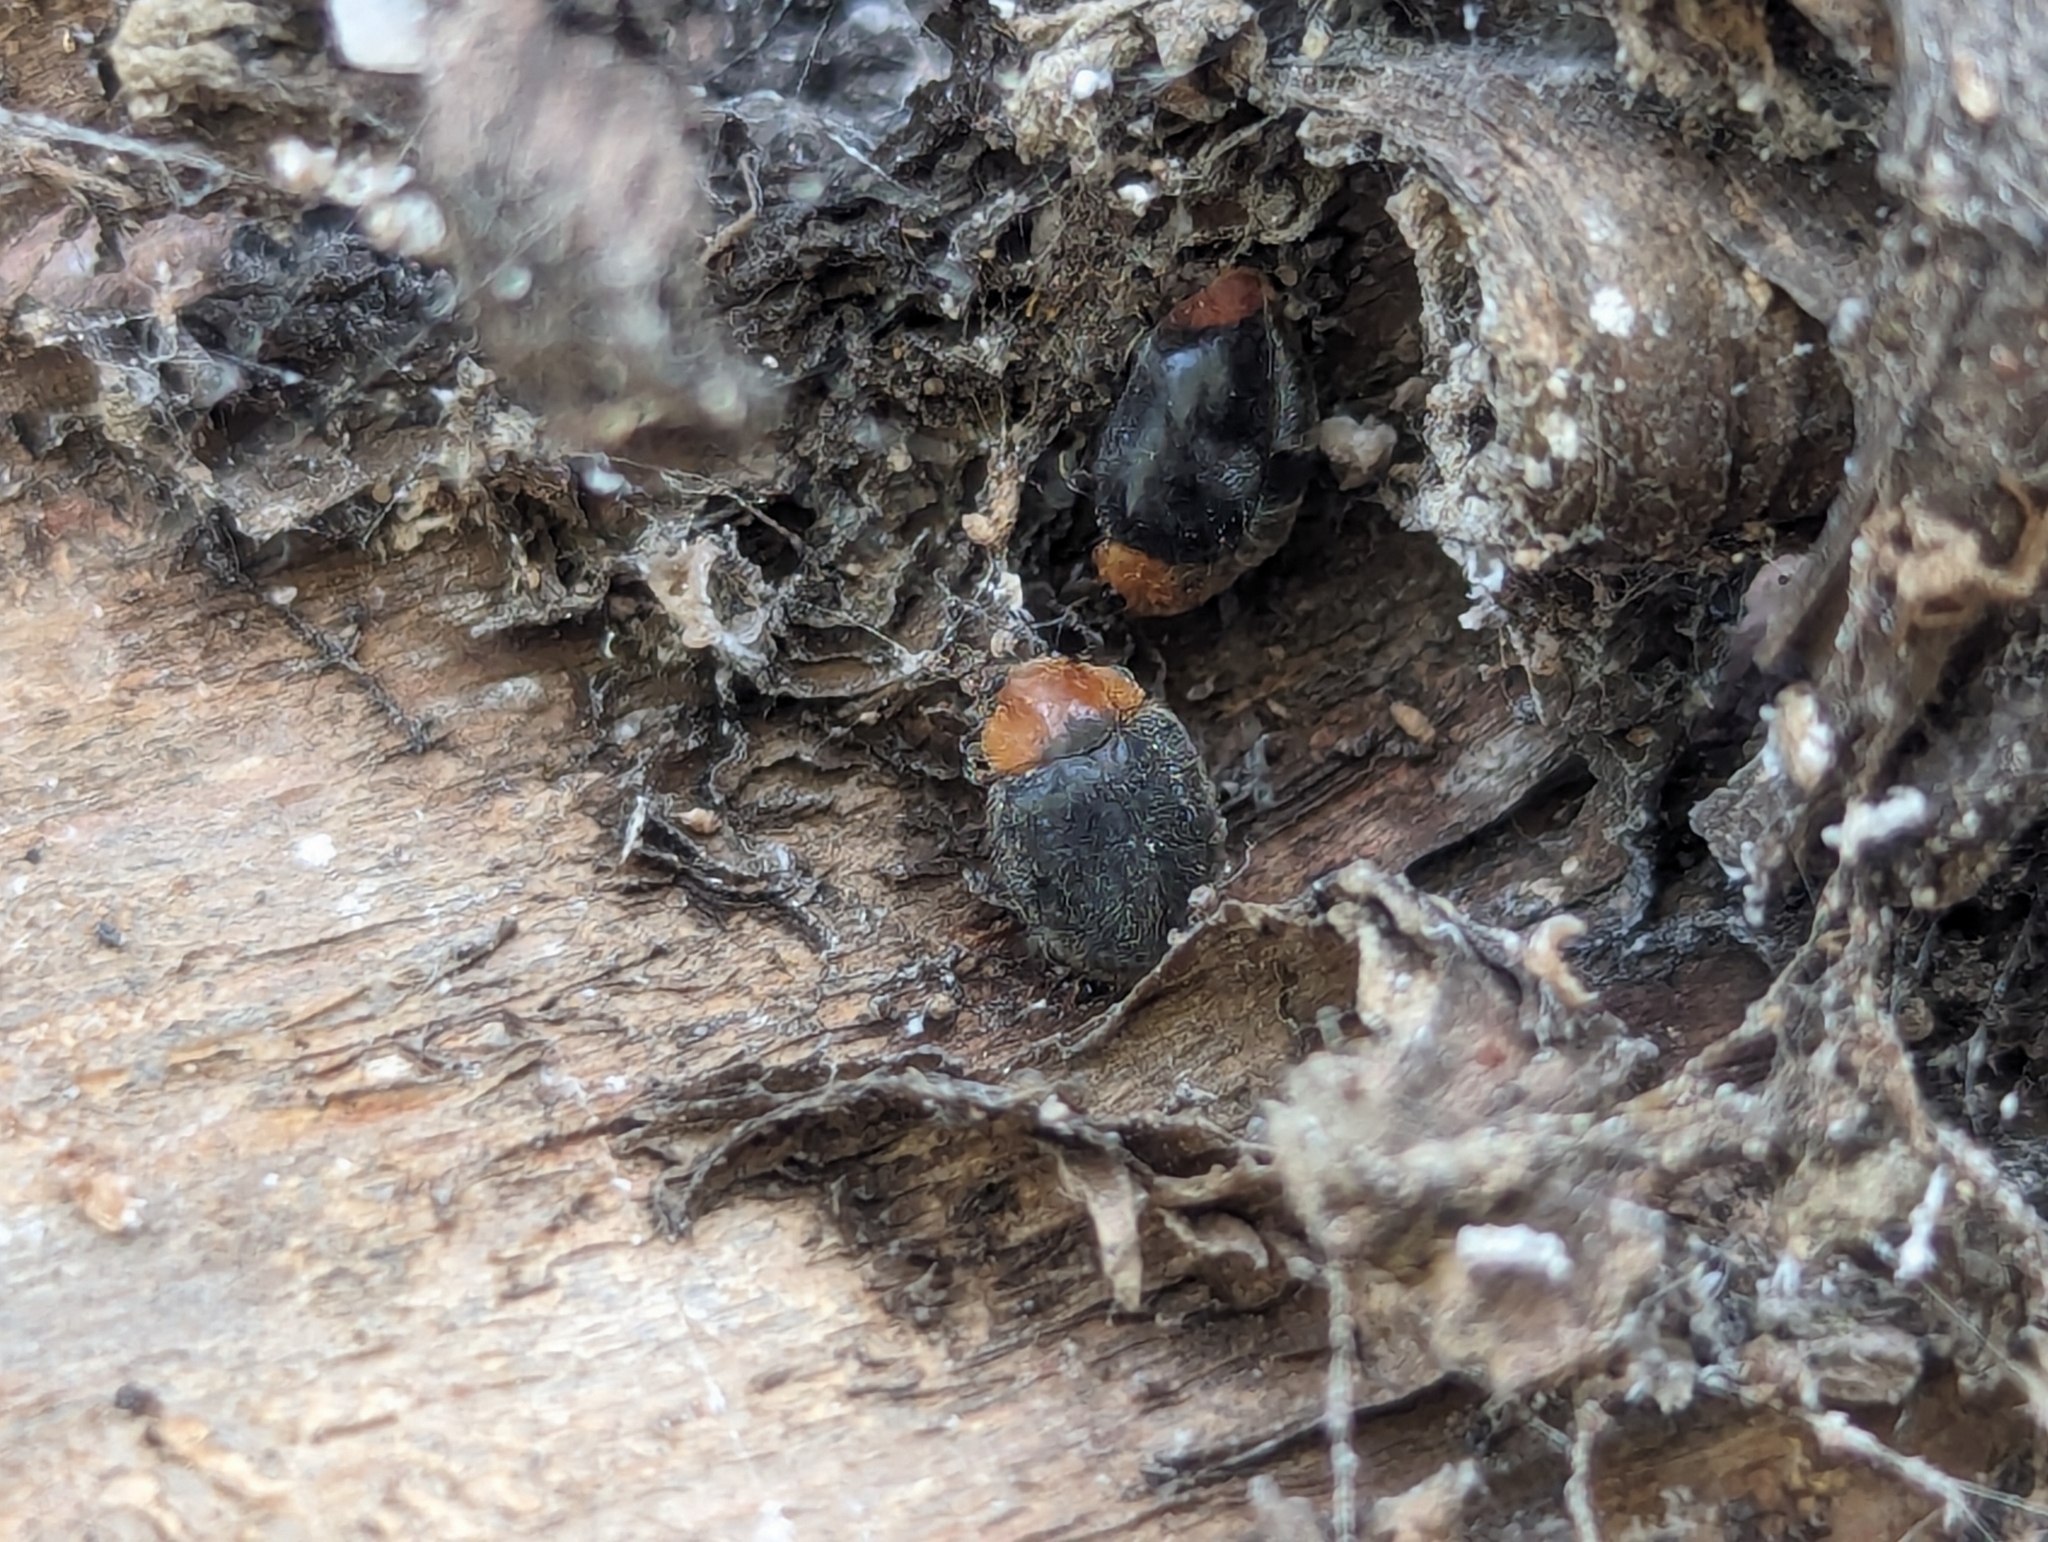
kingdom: Animalia
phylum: Arthropoda
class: Insecta
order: Coleoptera
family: Coccinellidae
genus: Cryptolaemus
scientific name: Cryptolaemus montrouzieri
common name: Mealybug destroyer
